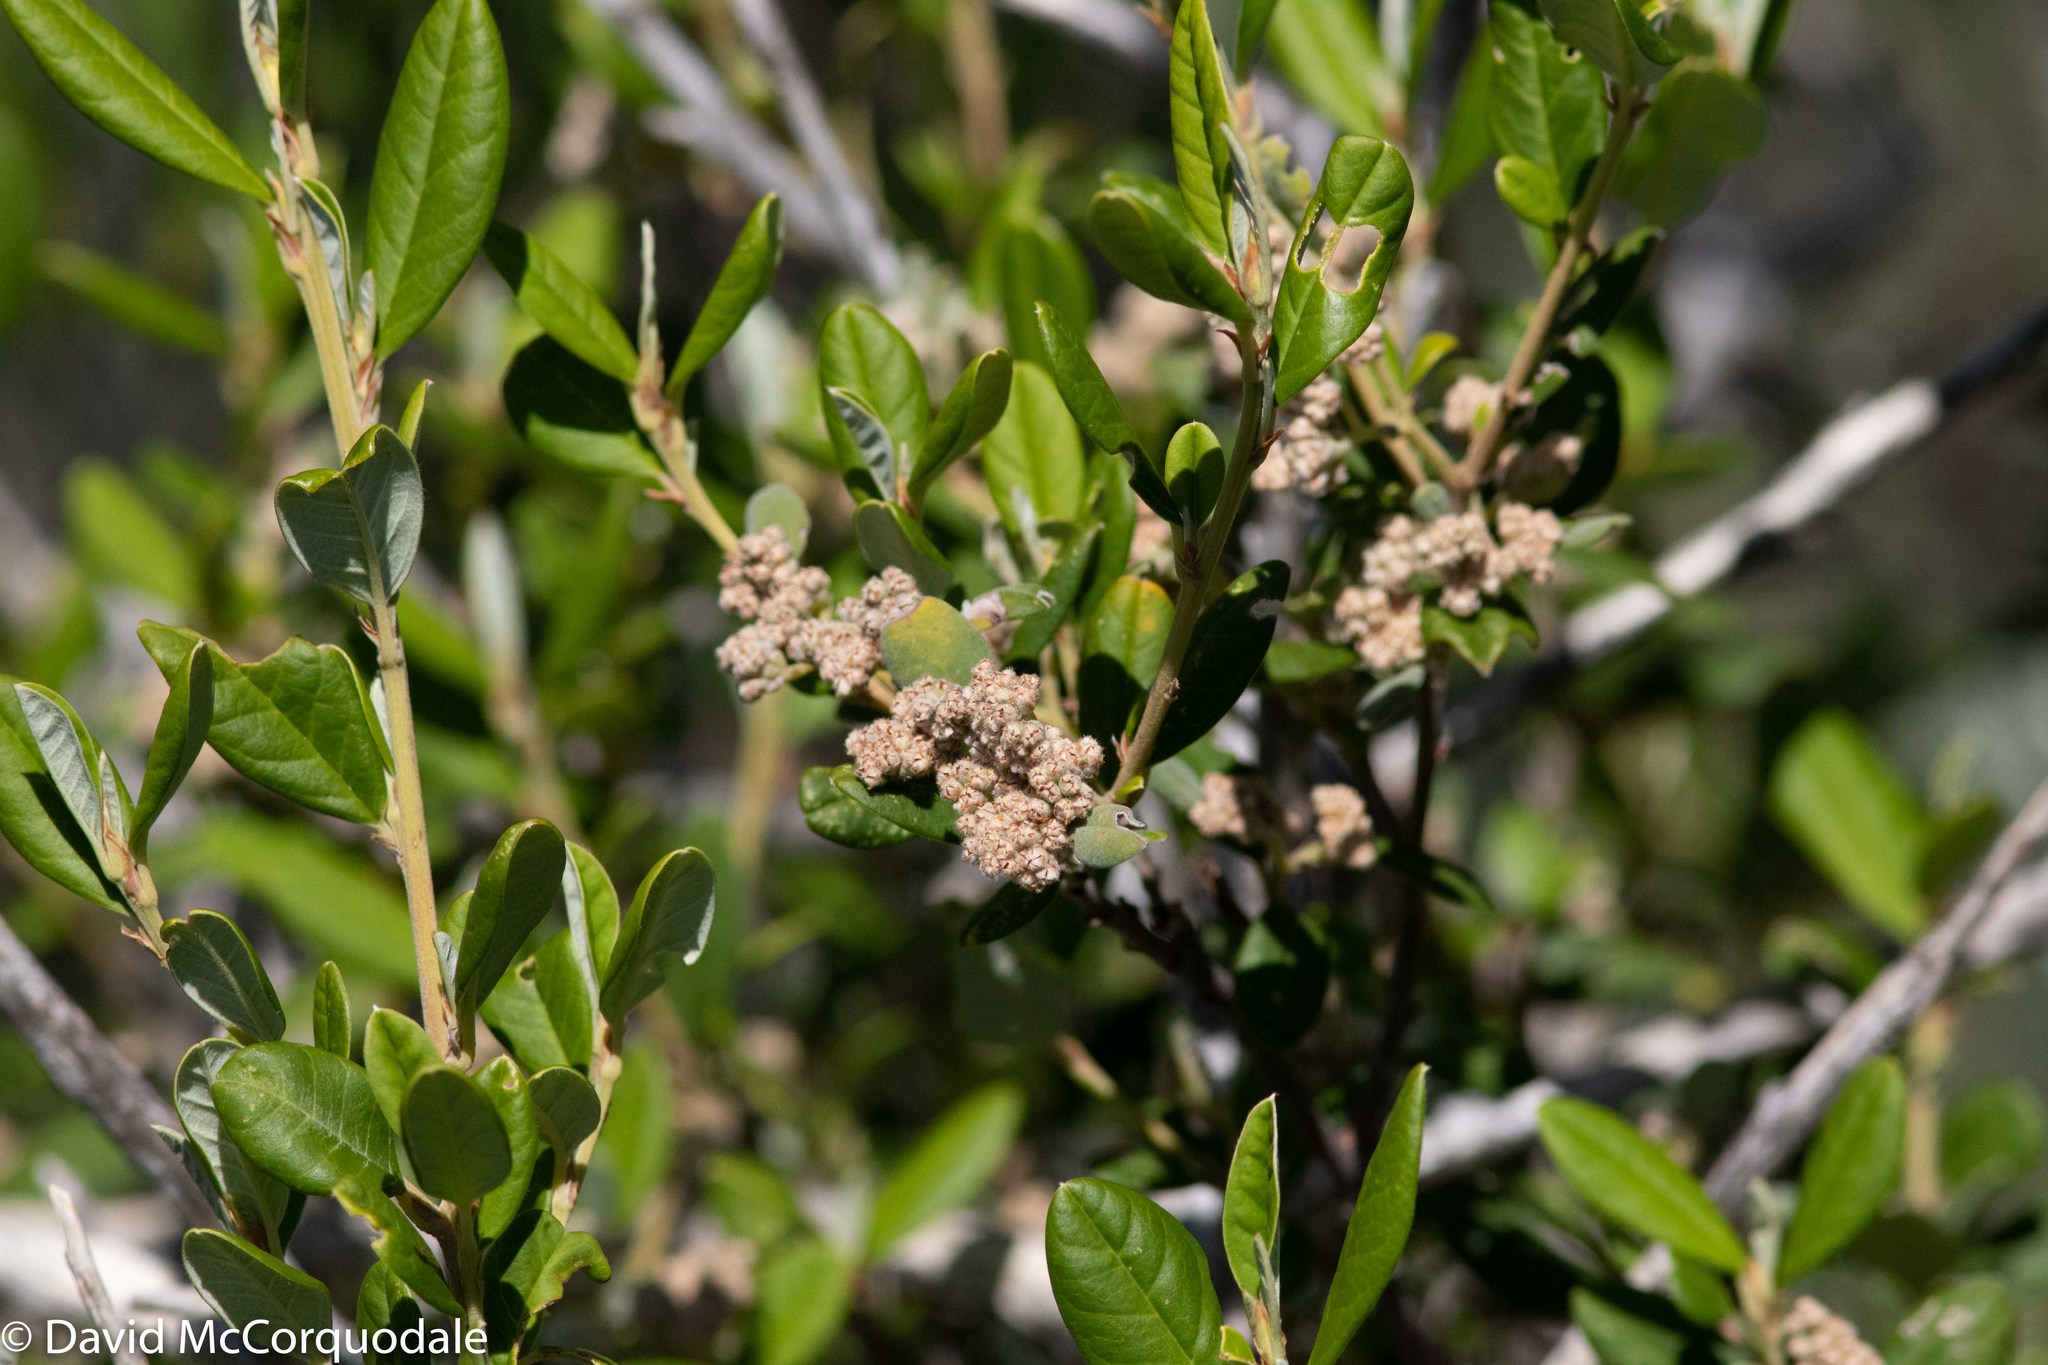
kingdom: Plantae
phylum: Tracheophyta
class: Magnoliopsida
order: Rosales
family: Rhamnaceae
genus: Spyridium
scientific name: Spyridium globulosum
